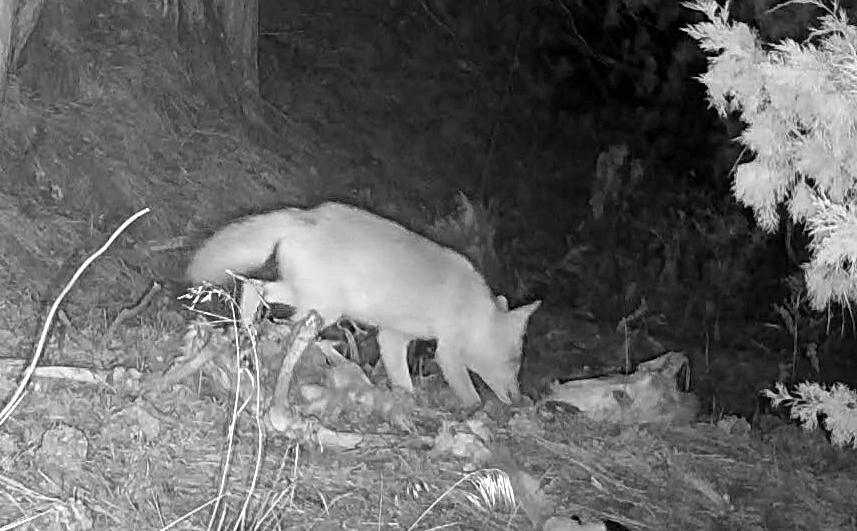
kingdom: Animalia
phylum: Chordata
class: Mammalia
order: Carnivora
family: Canidae
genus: Canis
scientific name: Canis latrans
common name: Coyote
